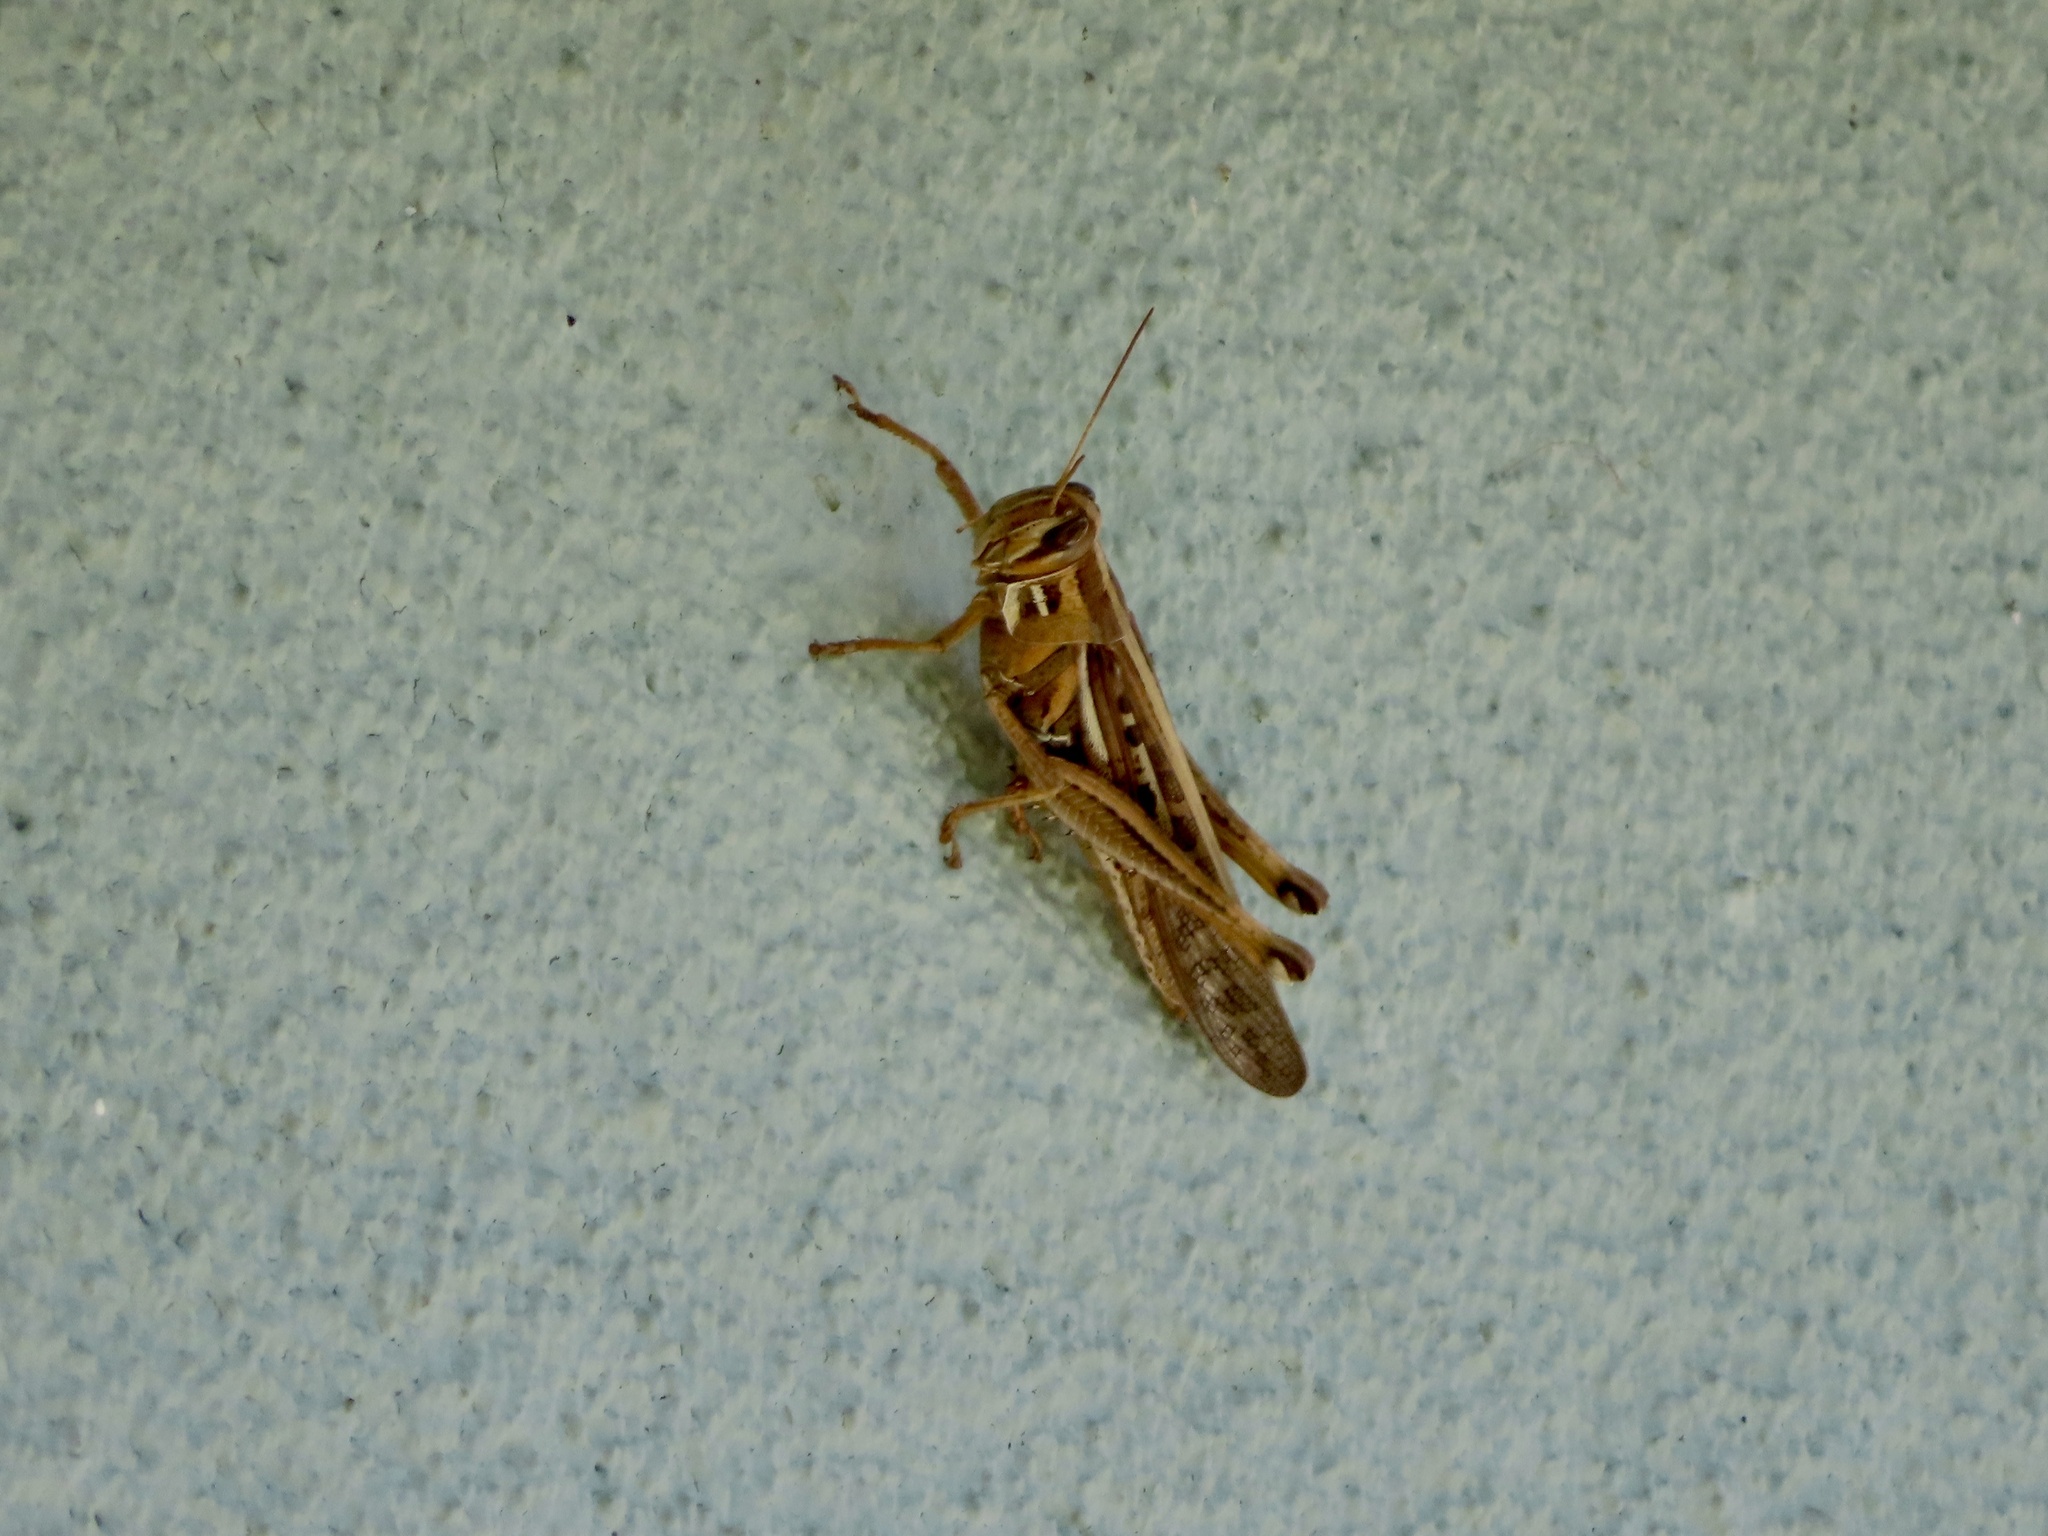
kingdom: Animalia
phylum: Arthropoda
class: Insecta
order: Orthoptera
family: Acrididae
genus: Schistocerca
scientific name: Schistocerca americana
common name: American bird locust
